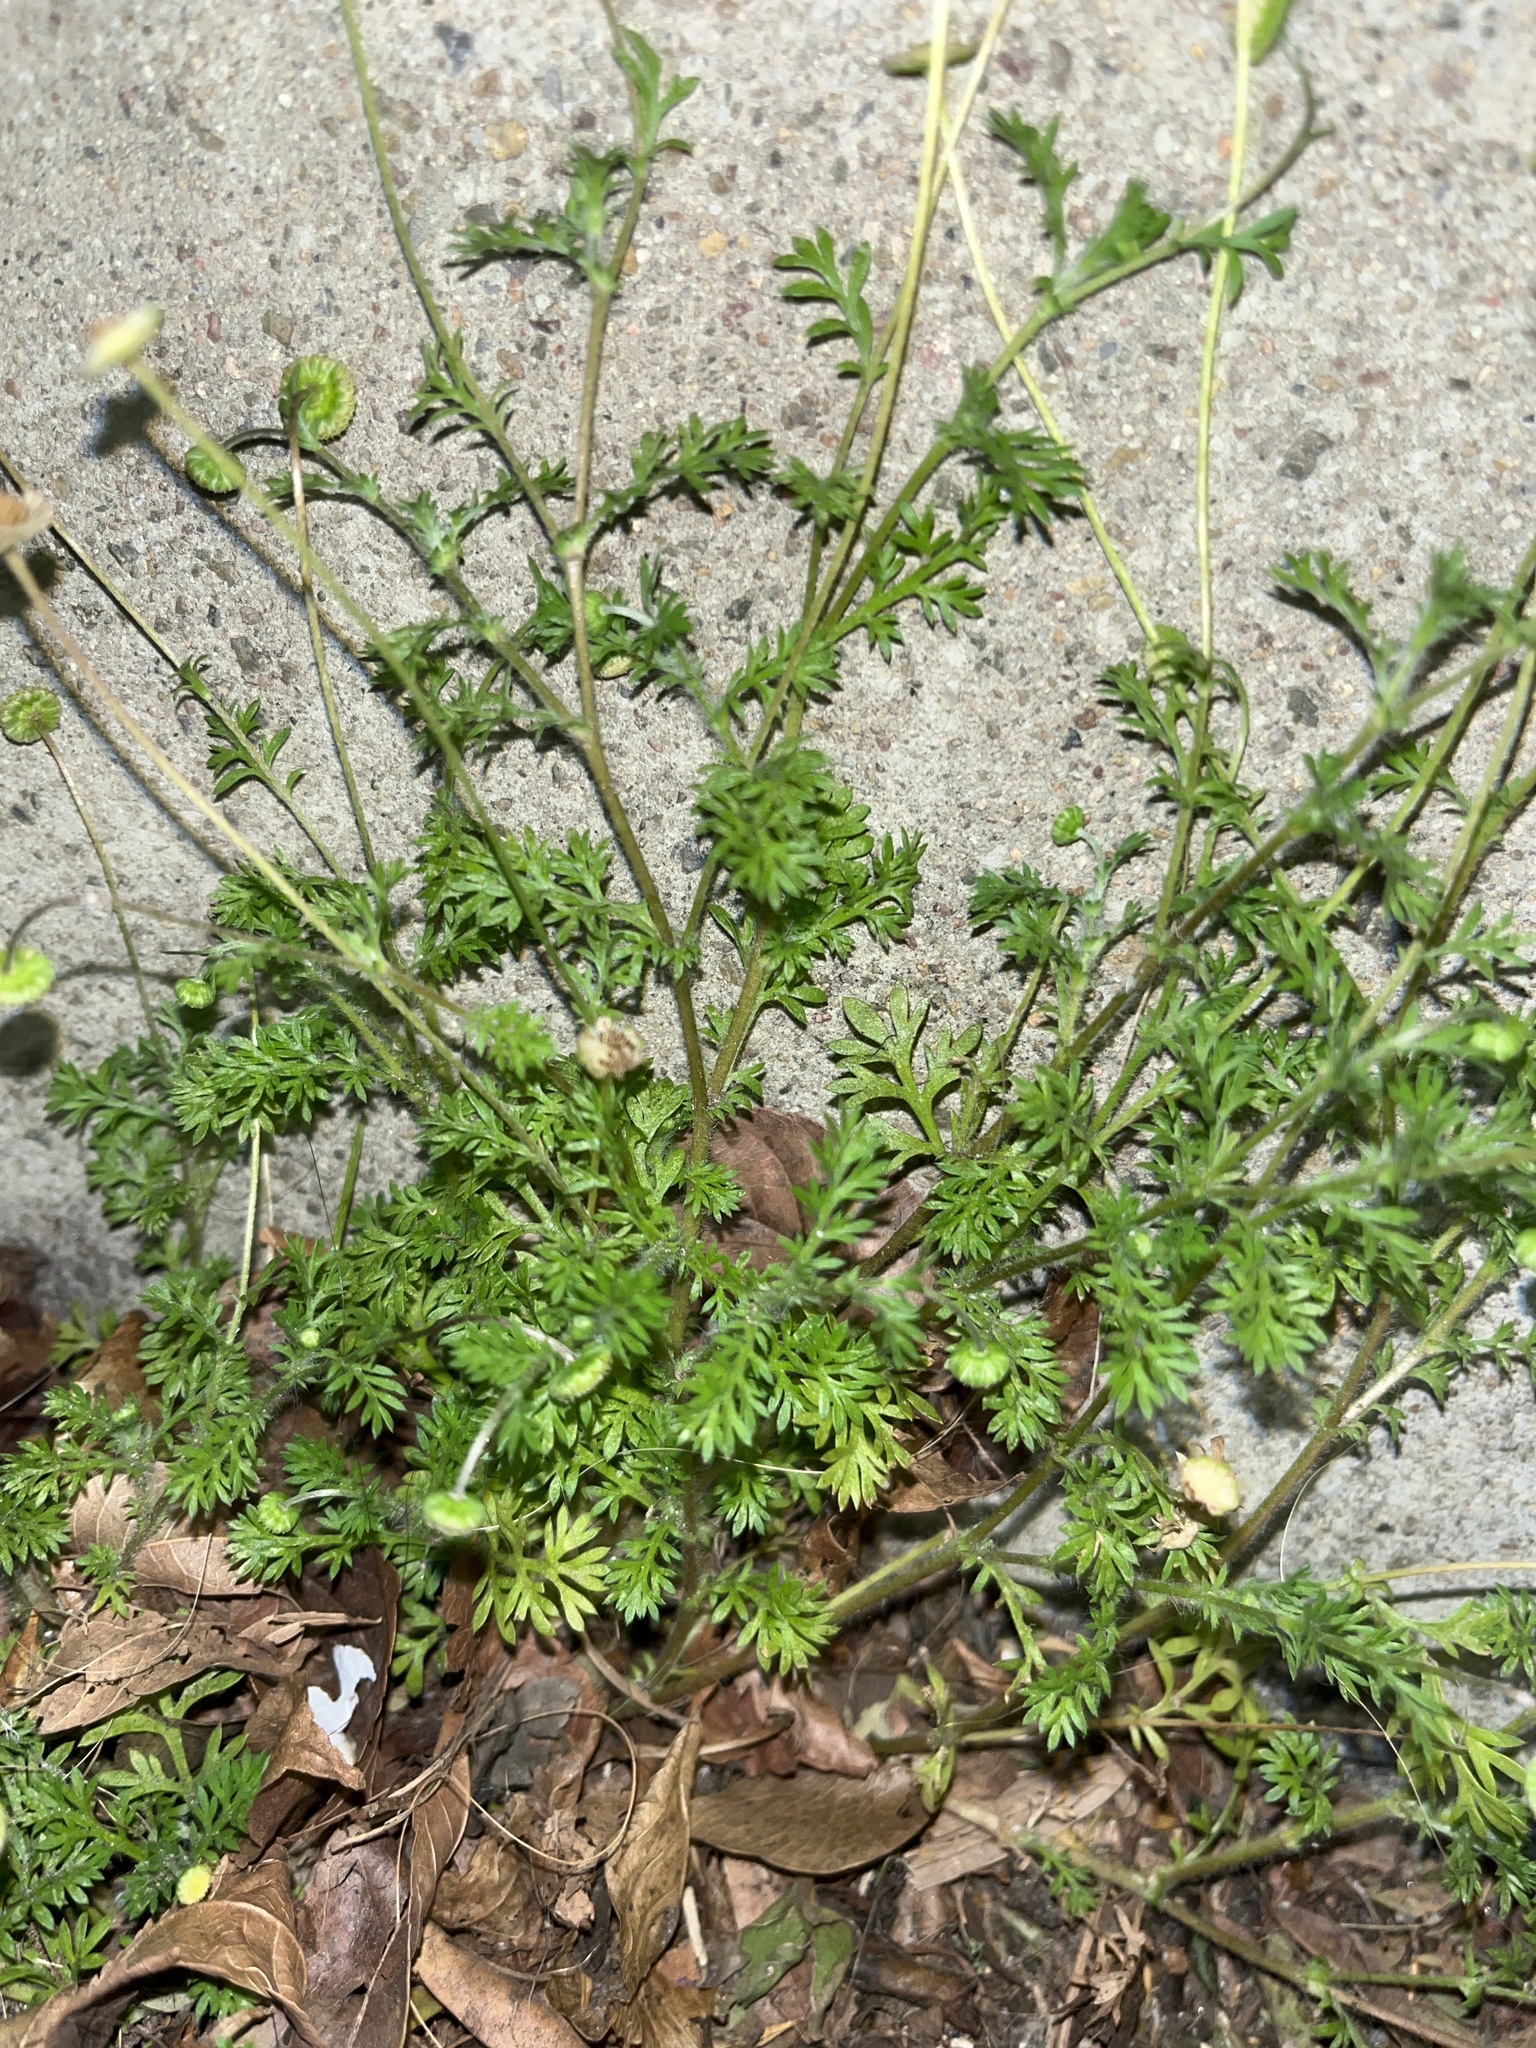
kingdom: Plantae
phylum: Tracheophyta
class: Magnoliopsida
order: Asterales
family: Asteraceae
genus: Cotula
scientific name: Cotula australis
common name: Australian waterbuttons
